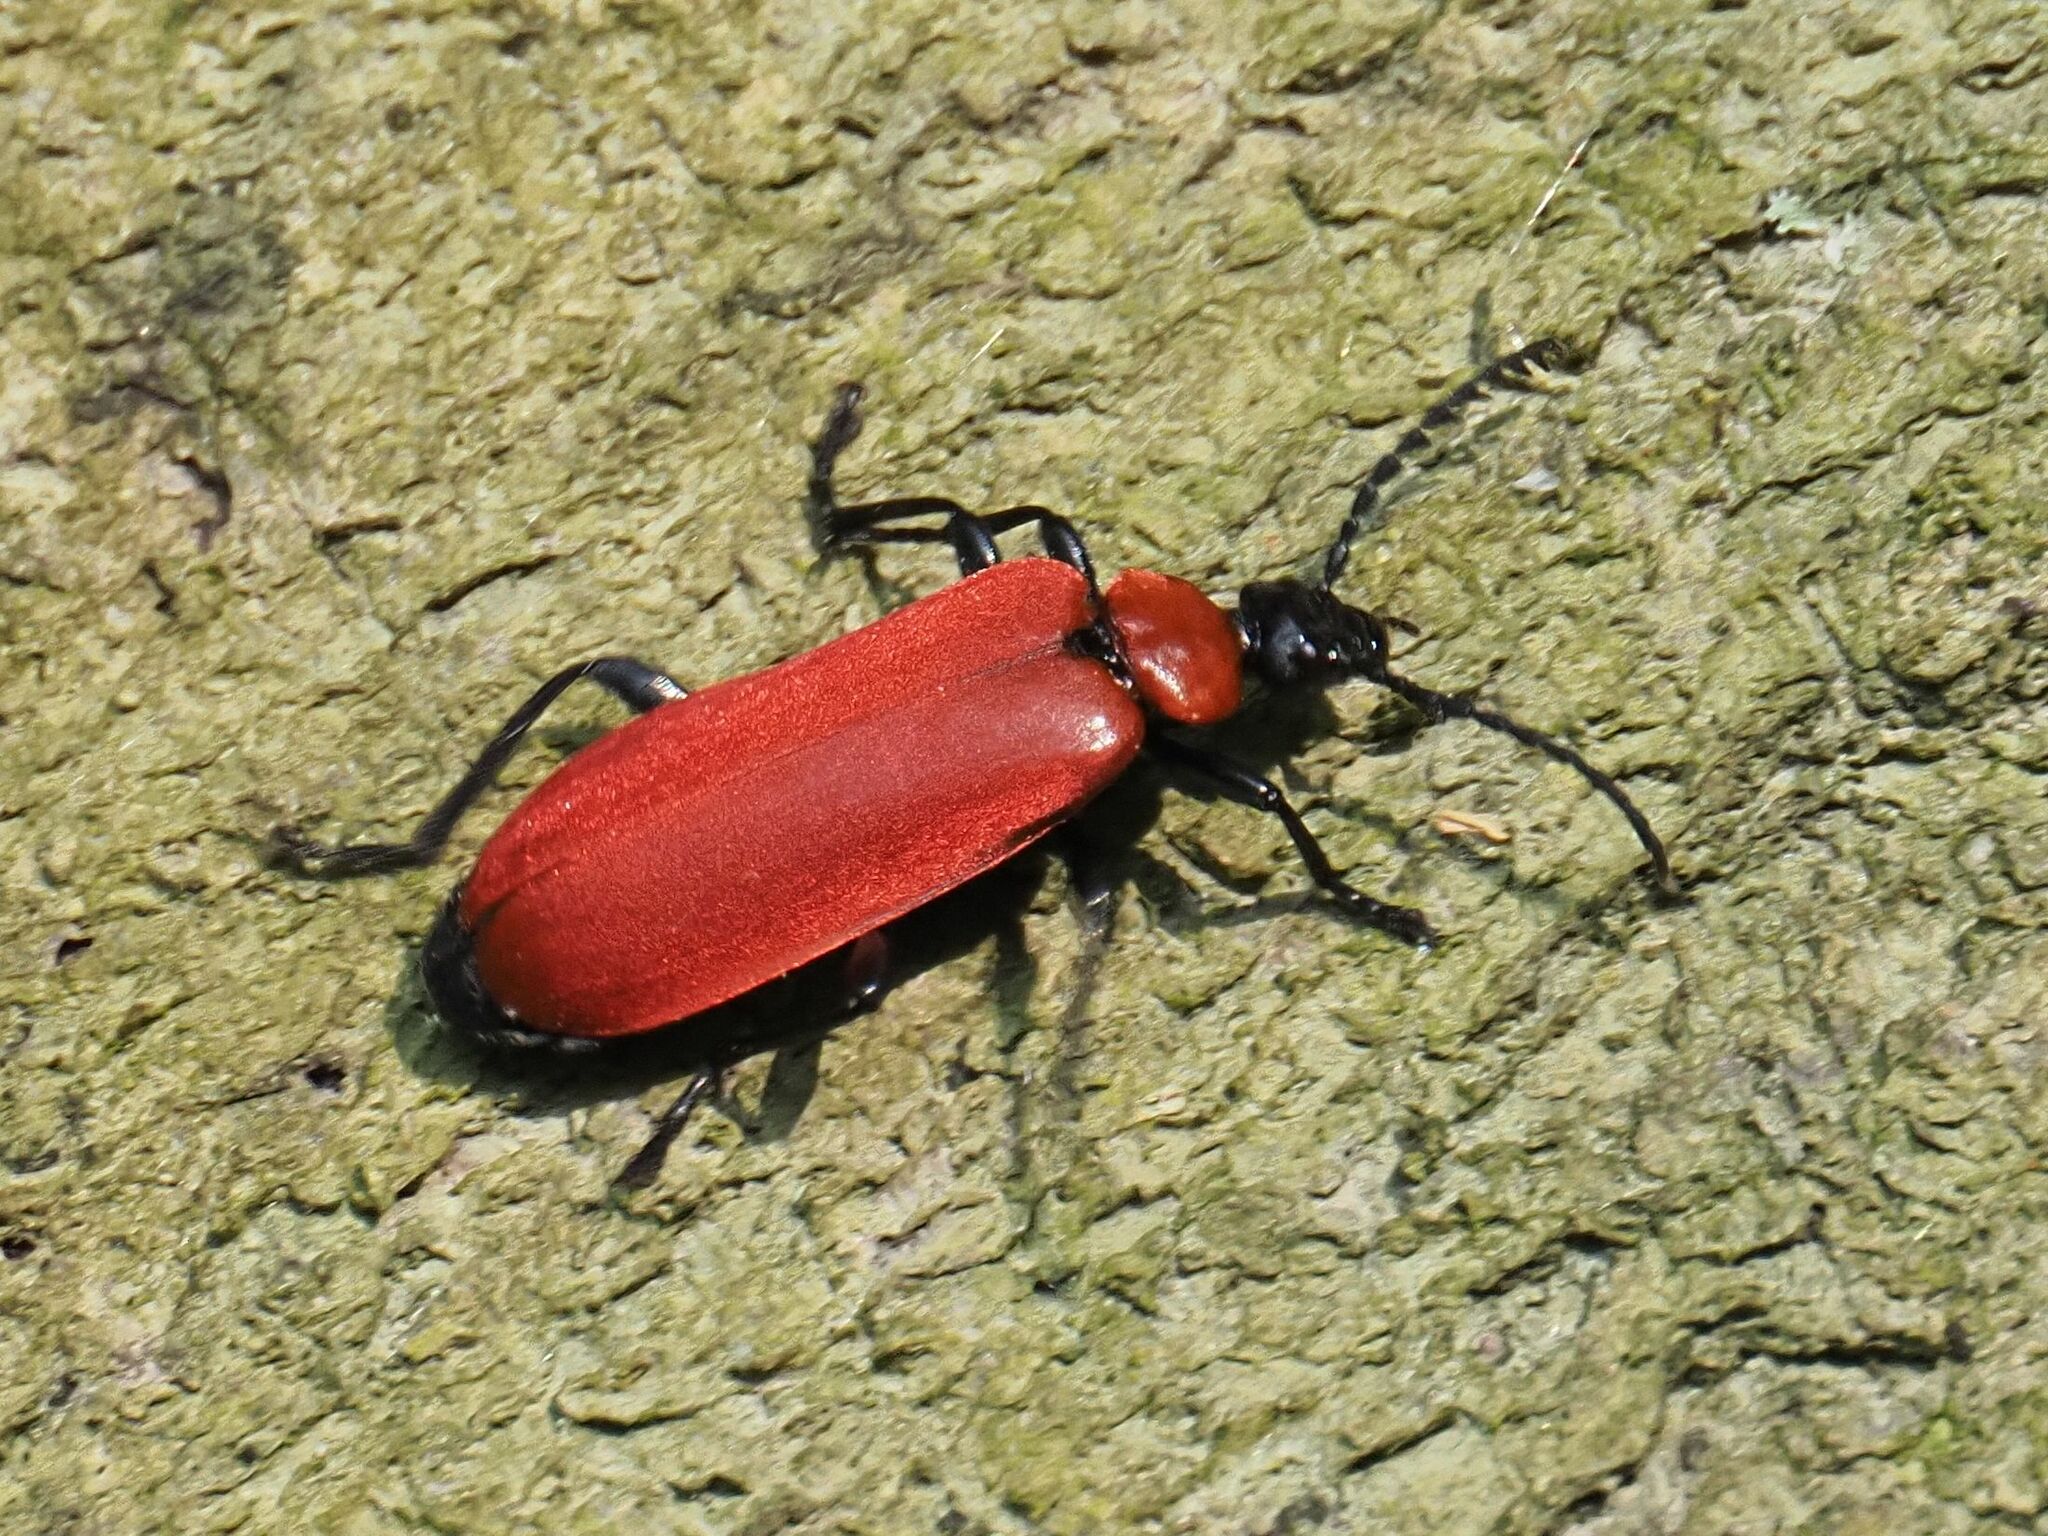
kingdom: Animalia
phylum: Arthropoda
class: Insecta
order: Coleoptera
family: Pyrochroidae
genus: Pyrochroa
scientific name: Pyrochroa coccinea
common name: Black-headed cardinal beetle
